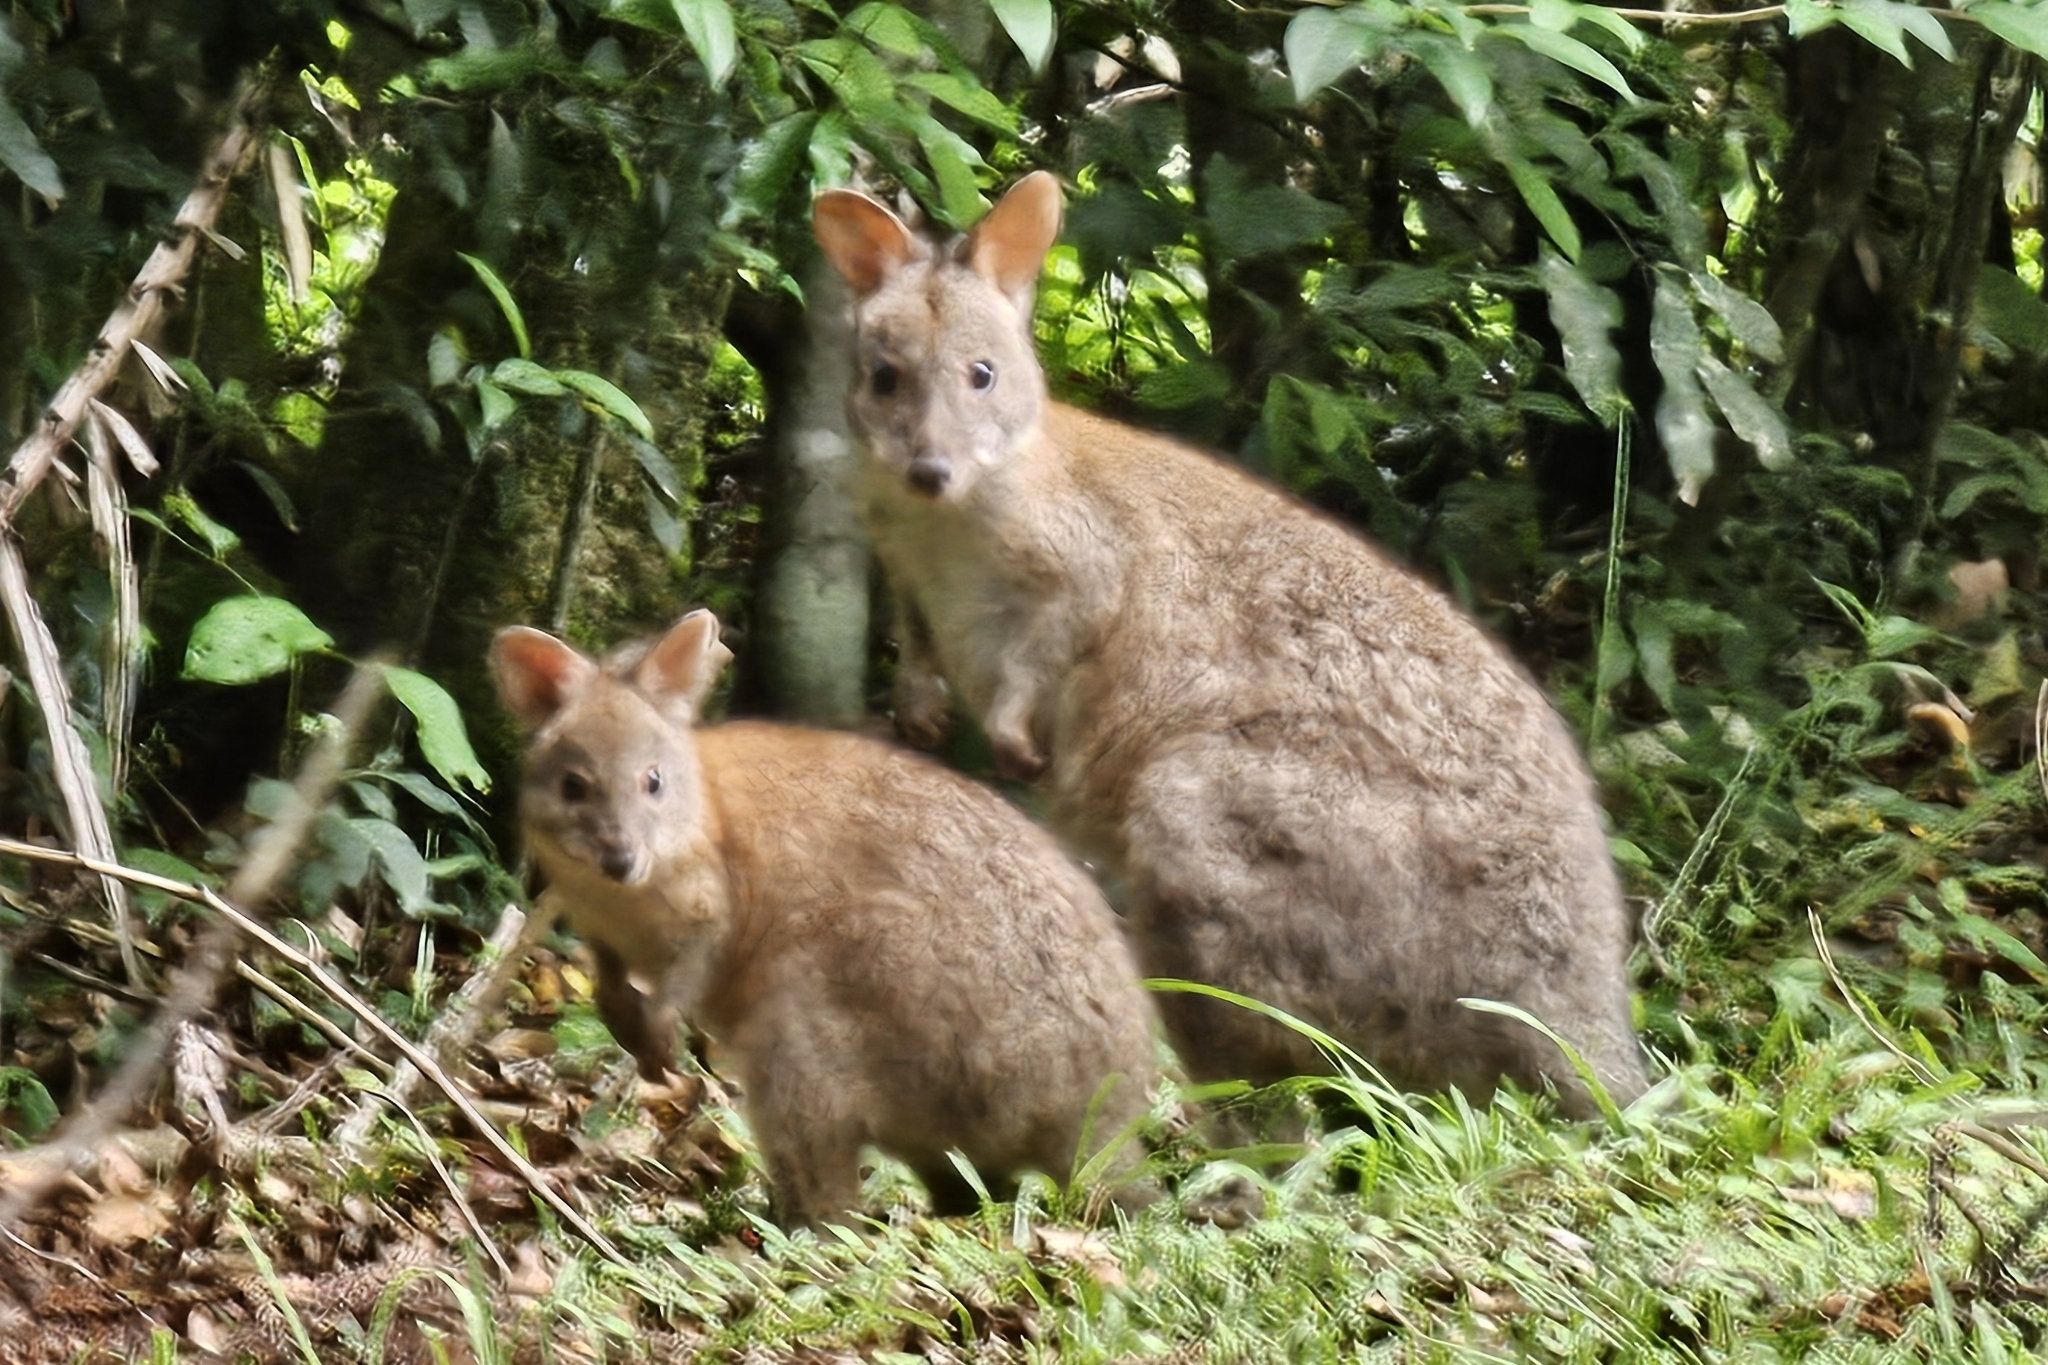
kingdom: Animalia
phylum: Chordata
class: Mammalia
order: Diprotodontia
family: Macropodidae
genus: Thylogale
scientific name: Thylogale thetis
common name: Red-necked pademelon
